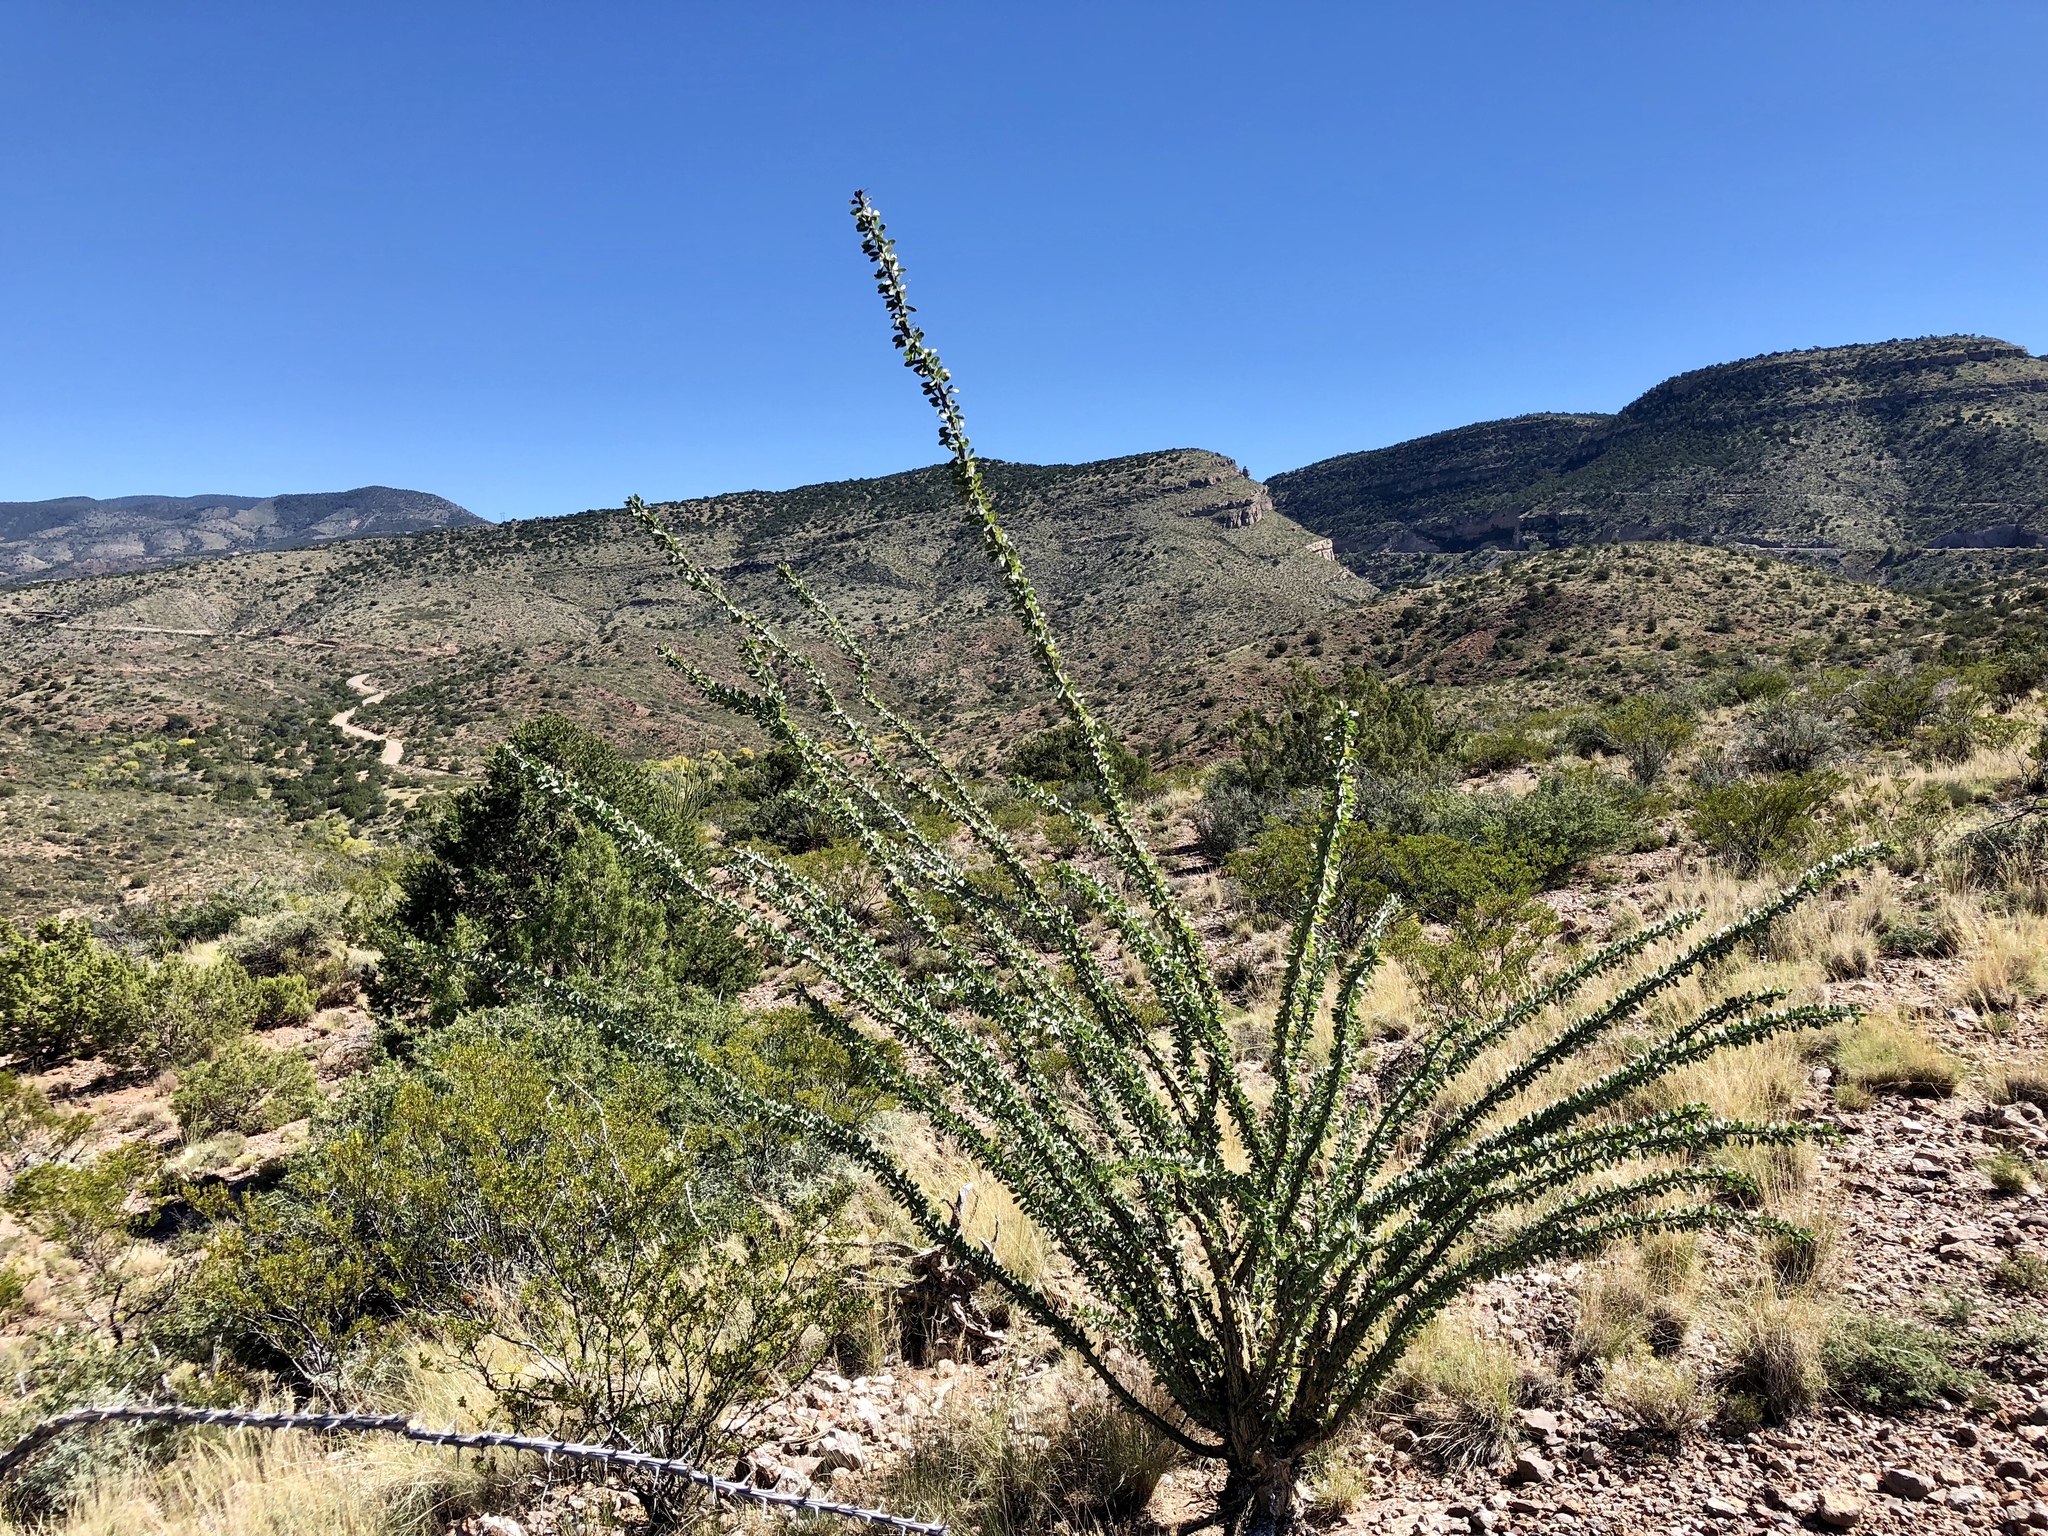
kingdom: Plantae
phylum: Tracheophyta
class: Magnoliopsida
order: Ericales
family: Fouquieriaceae
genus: Fouquieria
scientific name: Fouquieria splendens
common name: Vine-cactus
